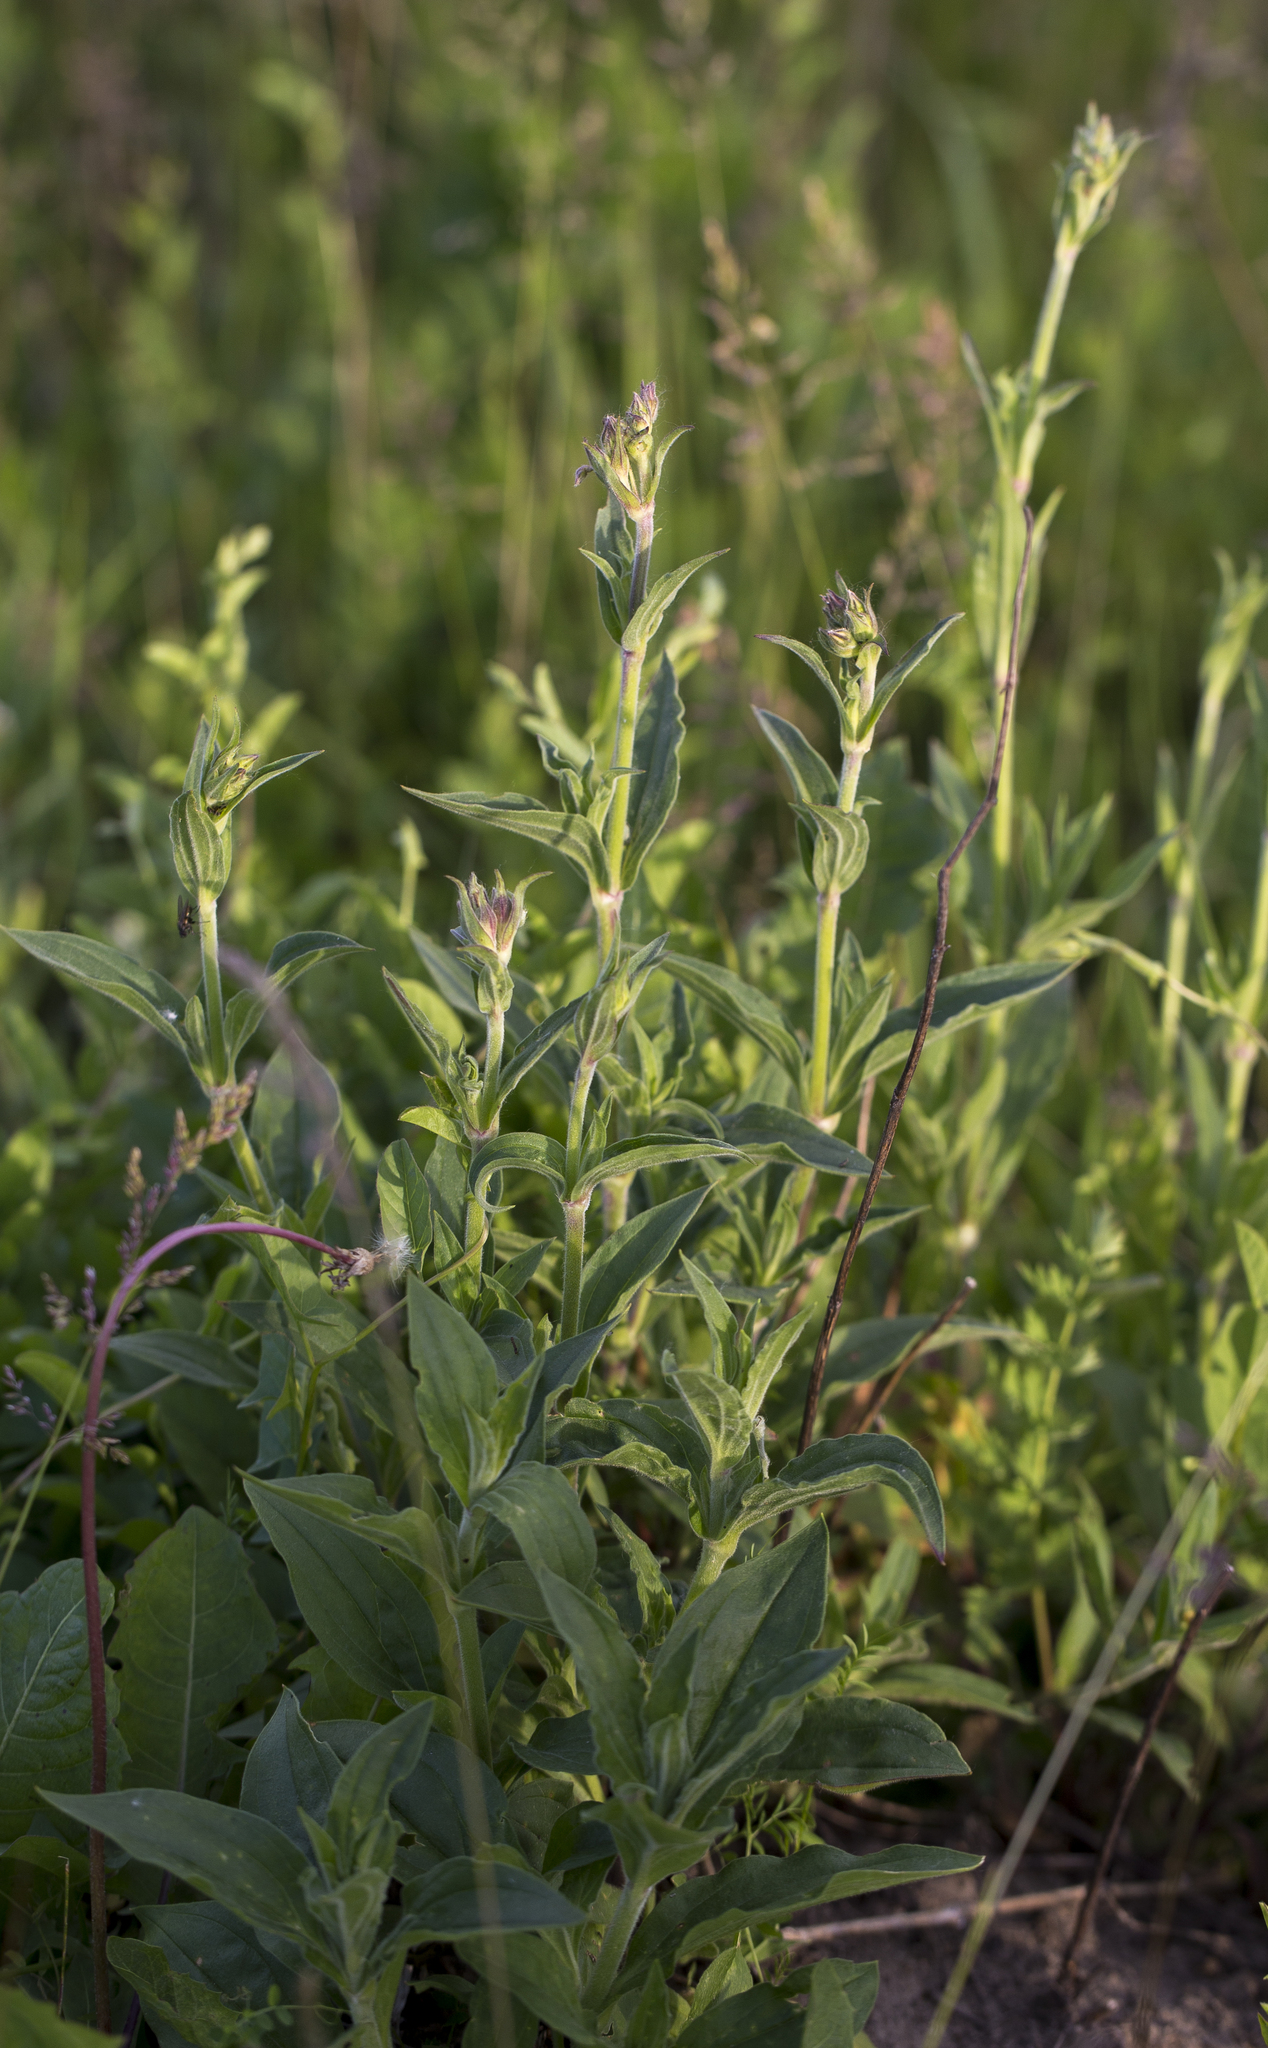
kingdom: Plantae
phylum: Tracheophyta
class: Magnoliopsida
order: Caryophyllales
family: Caryophyllaceae
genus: Silene
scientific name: Silene latifolia
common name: White campion
